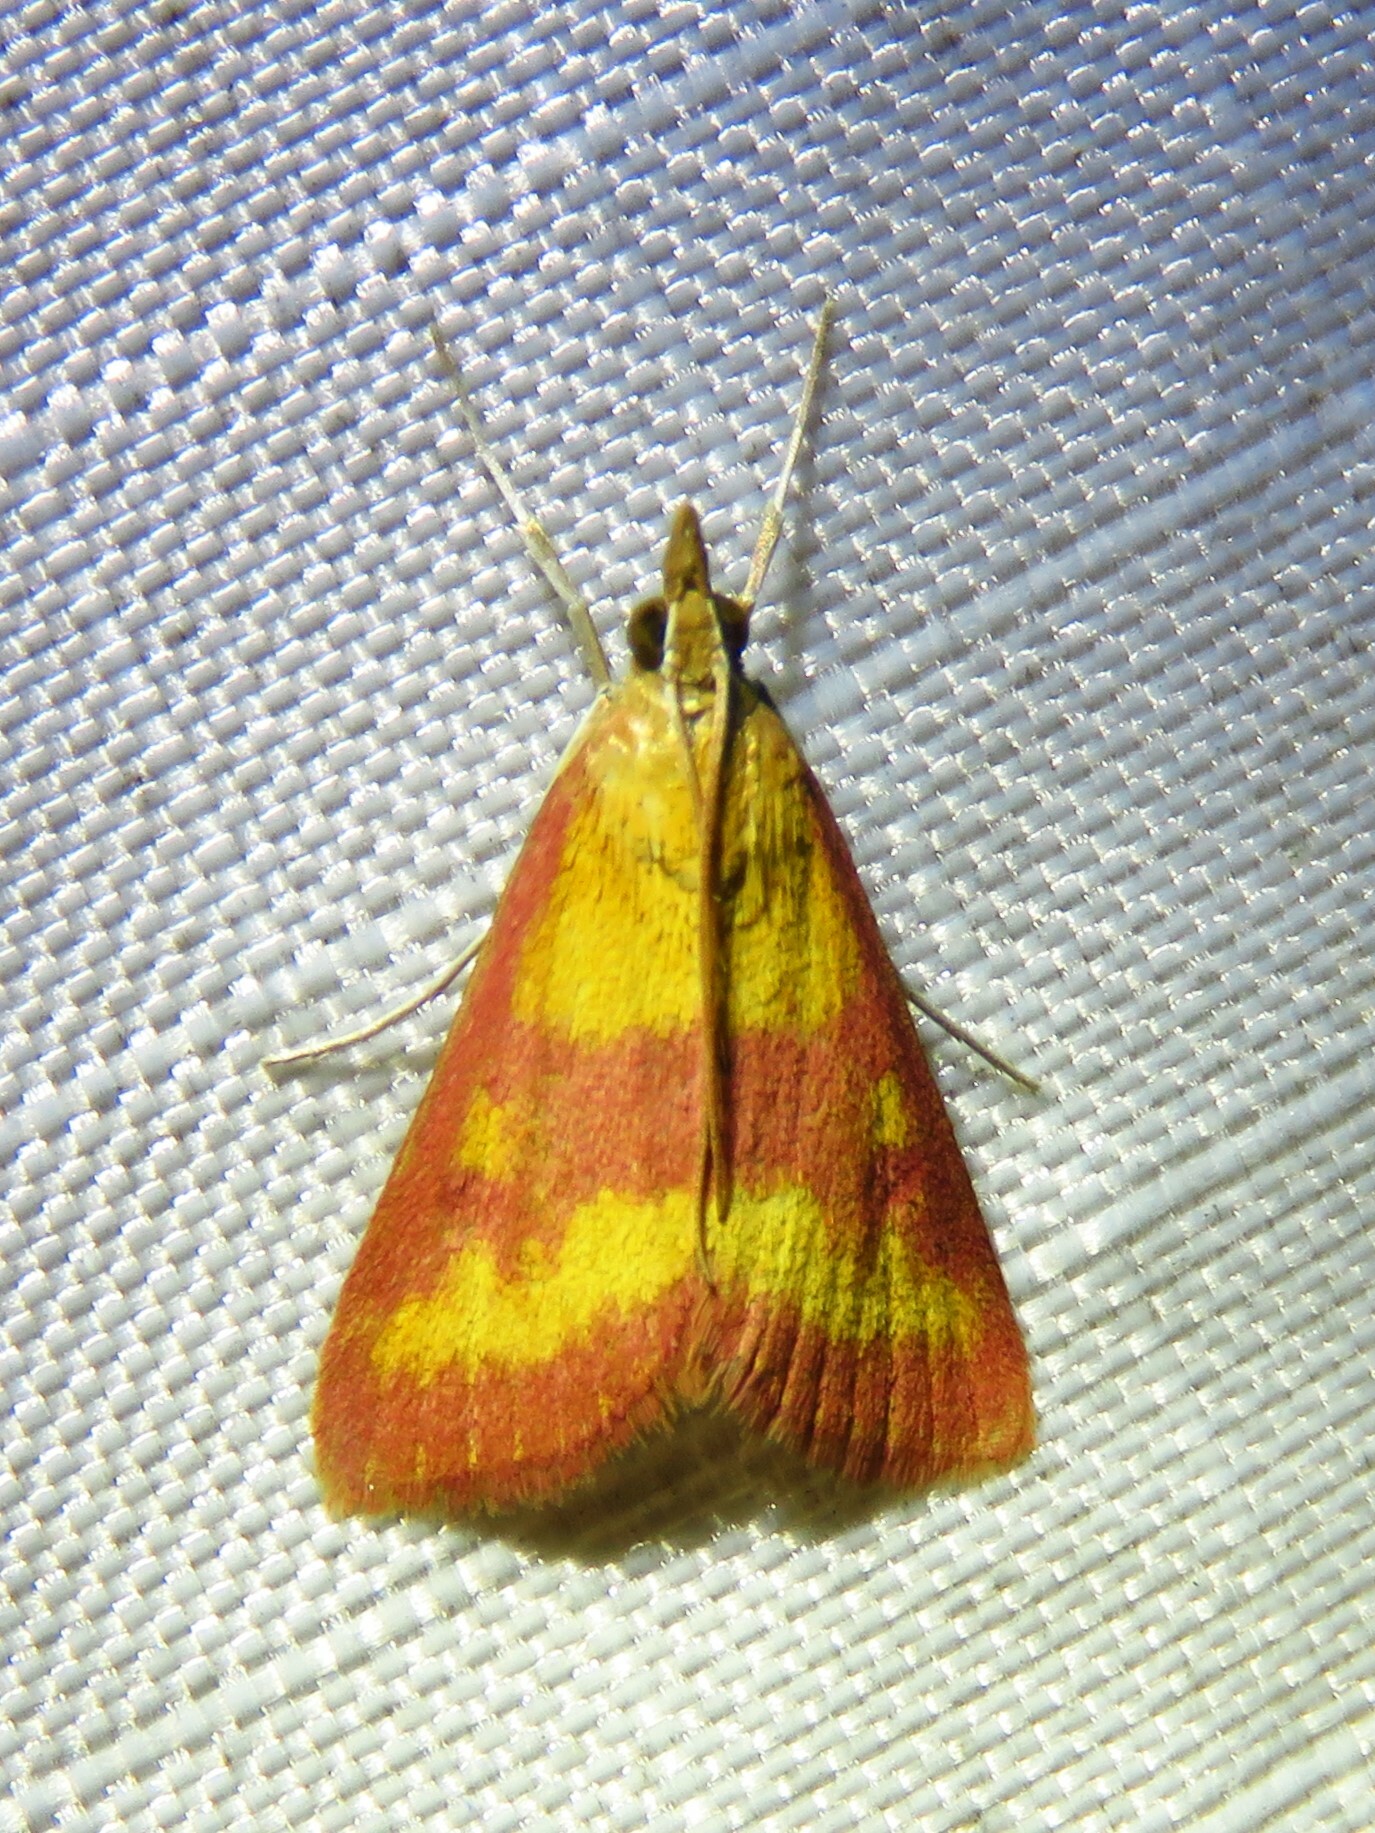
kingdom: Animalia
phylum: Arthropoda
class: Insecta
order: Lepidoptera
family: Crambidae
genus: Pyrausta
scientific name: Pyrausta laticlavia
